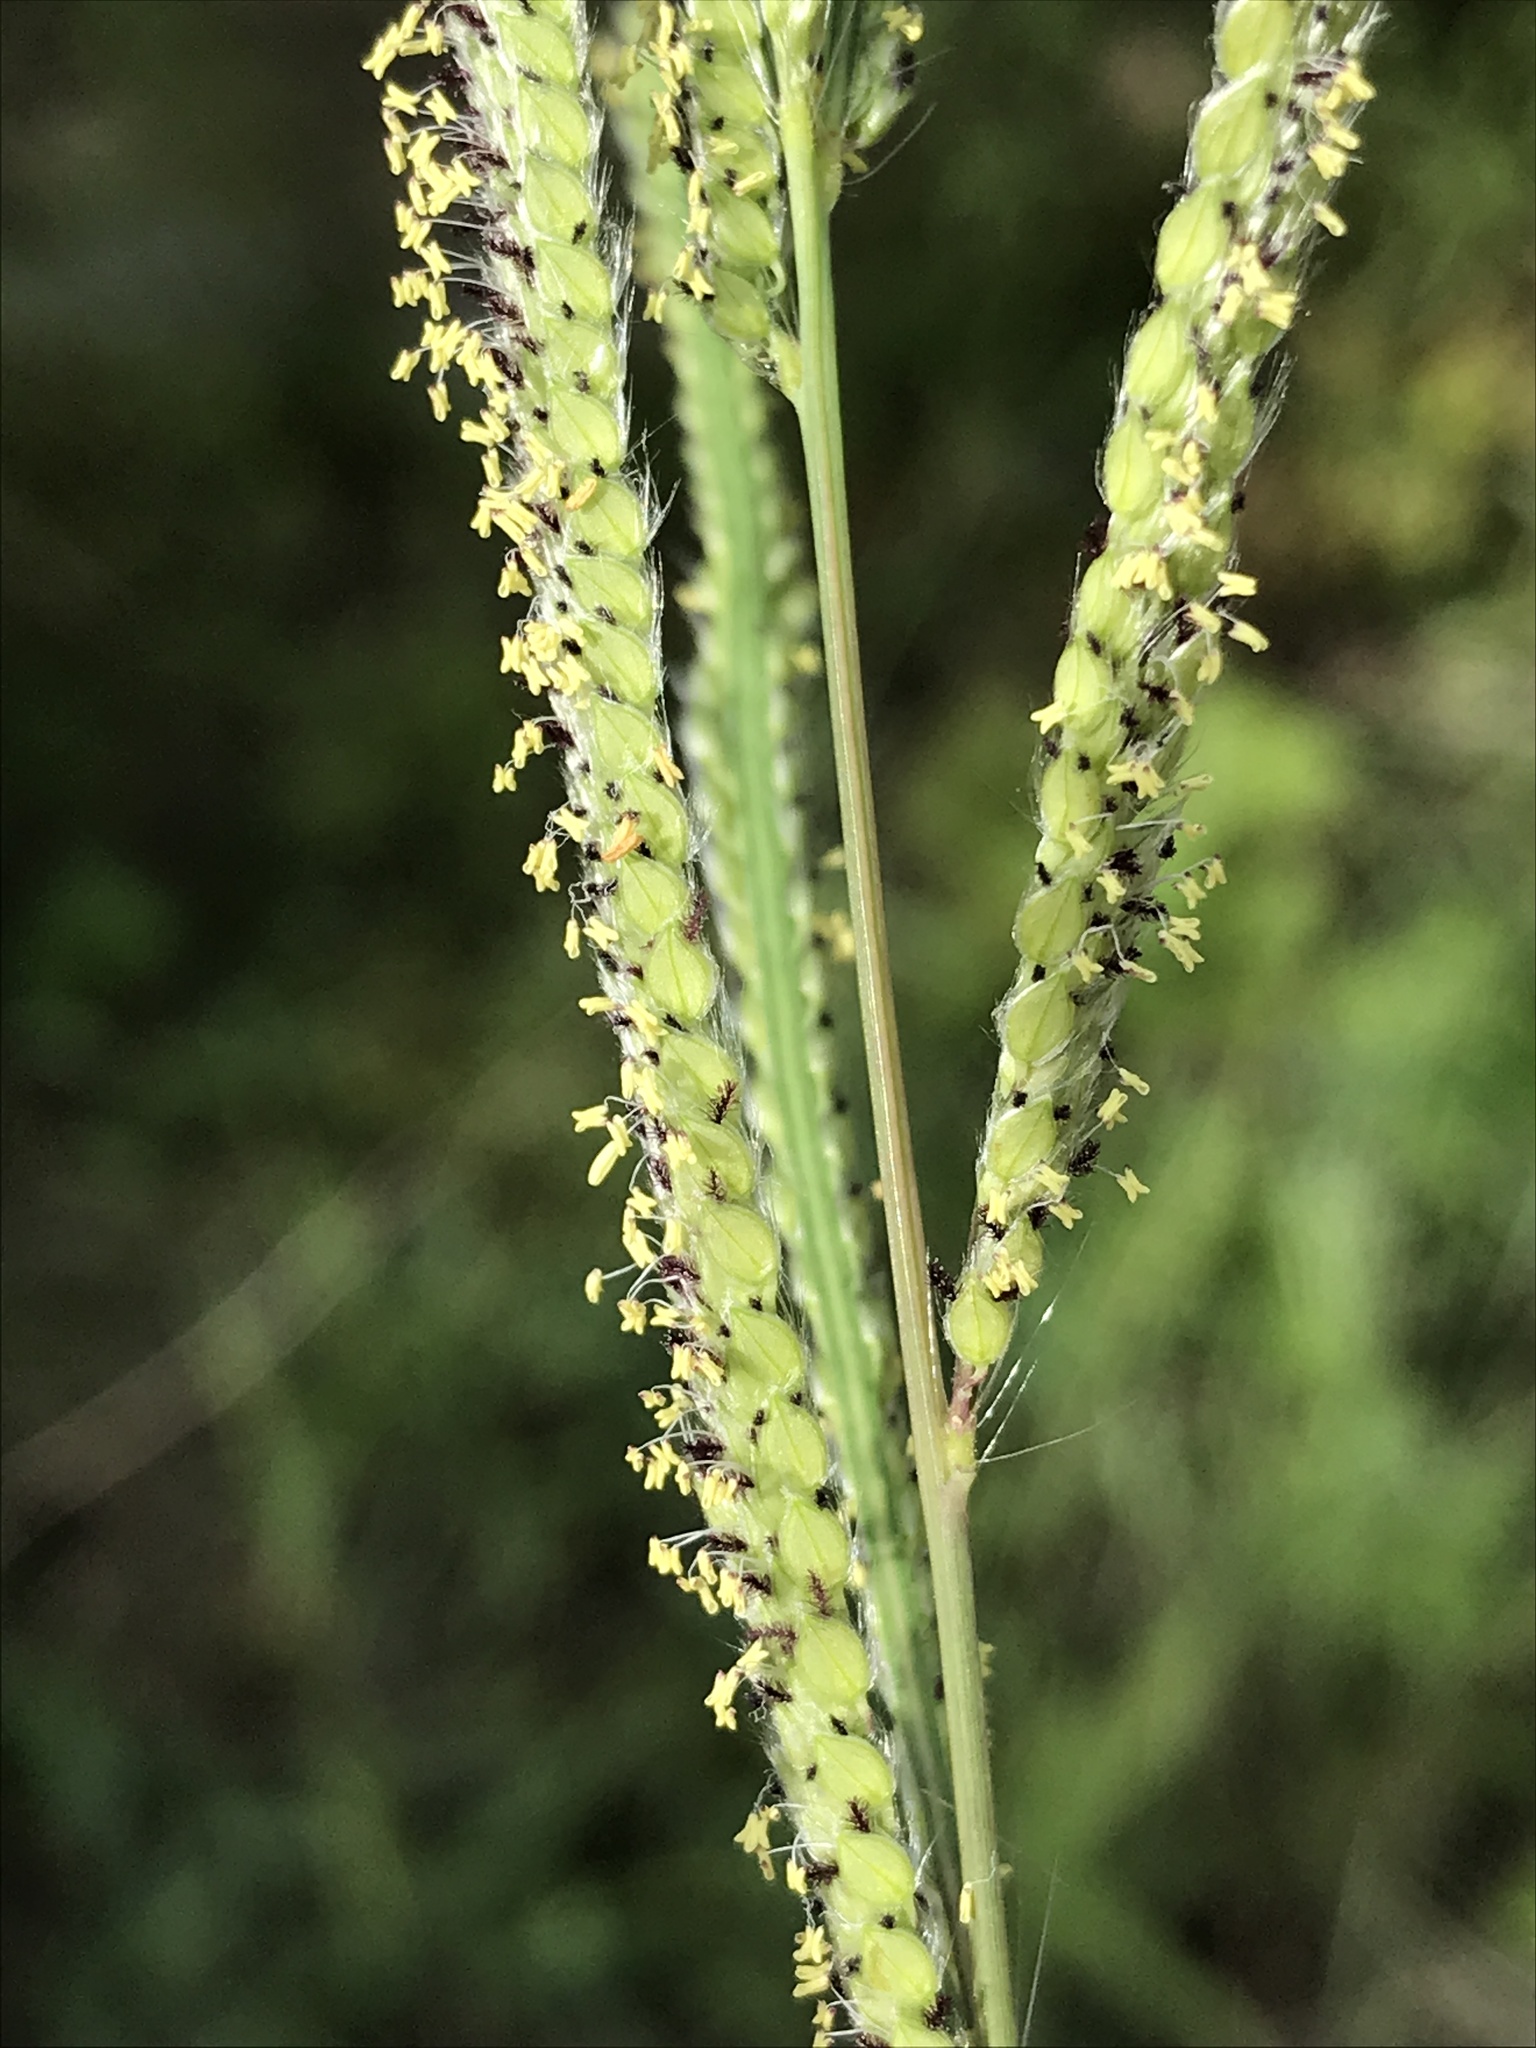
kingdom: Plantae
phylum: Tracheophyta
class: Liliopsida
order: Poales
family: Poaceae
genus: Paspalum
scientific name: Paspalum urvillei
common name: Vasey's grass
